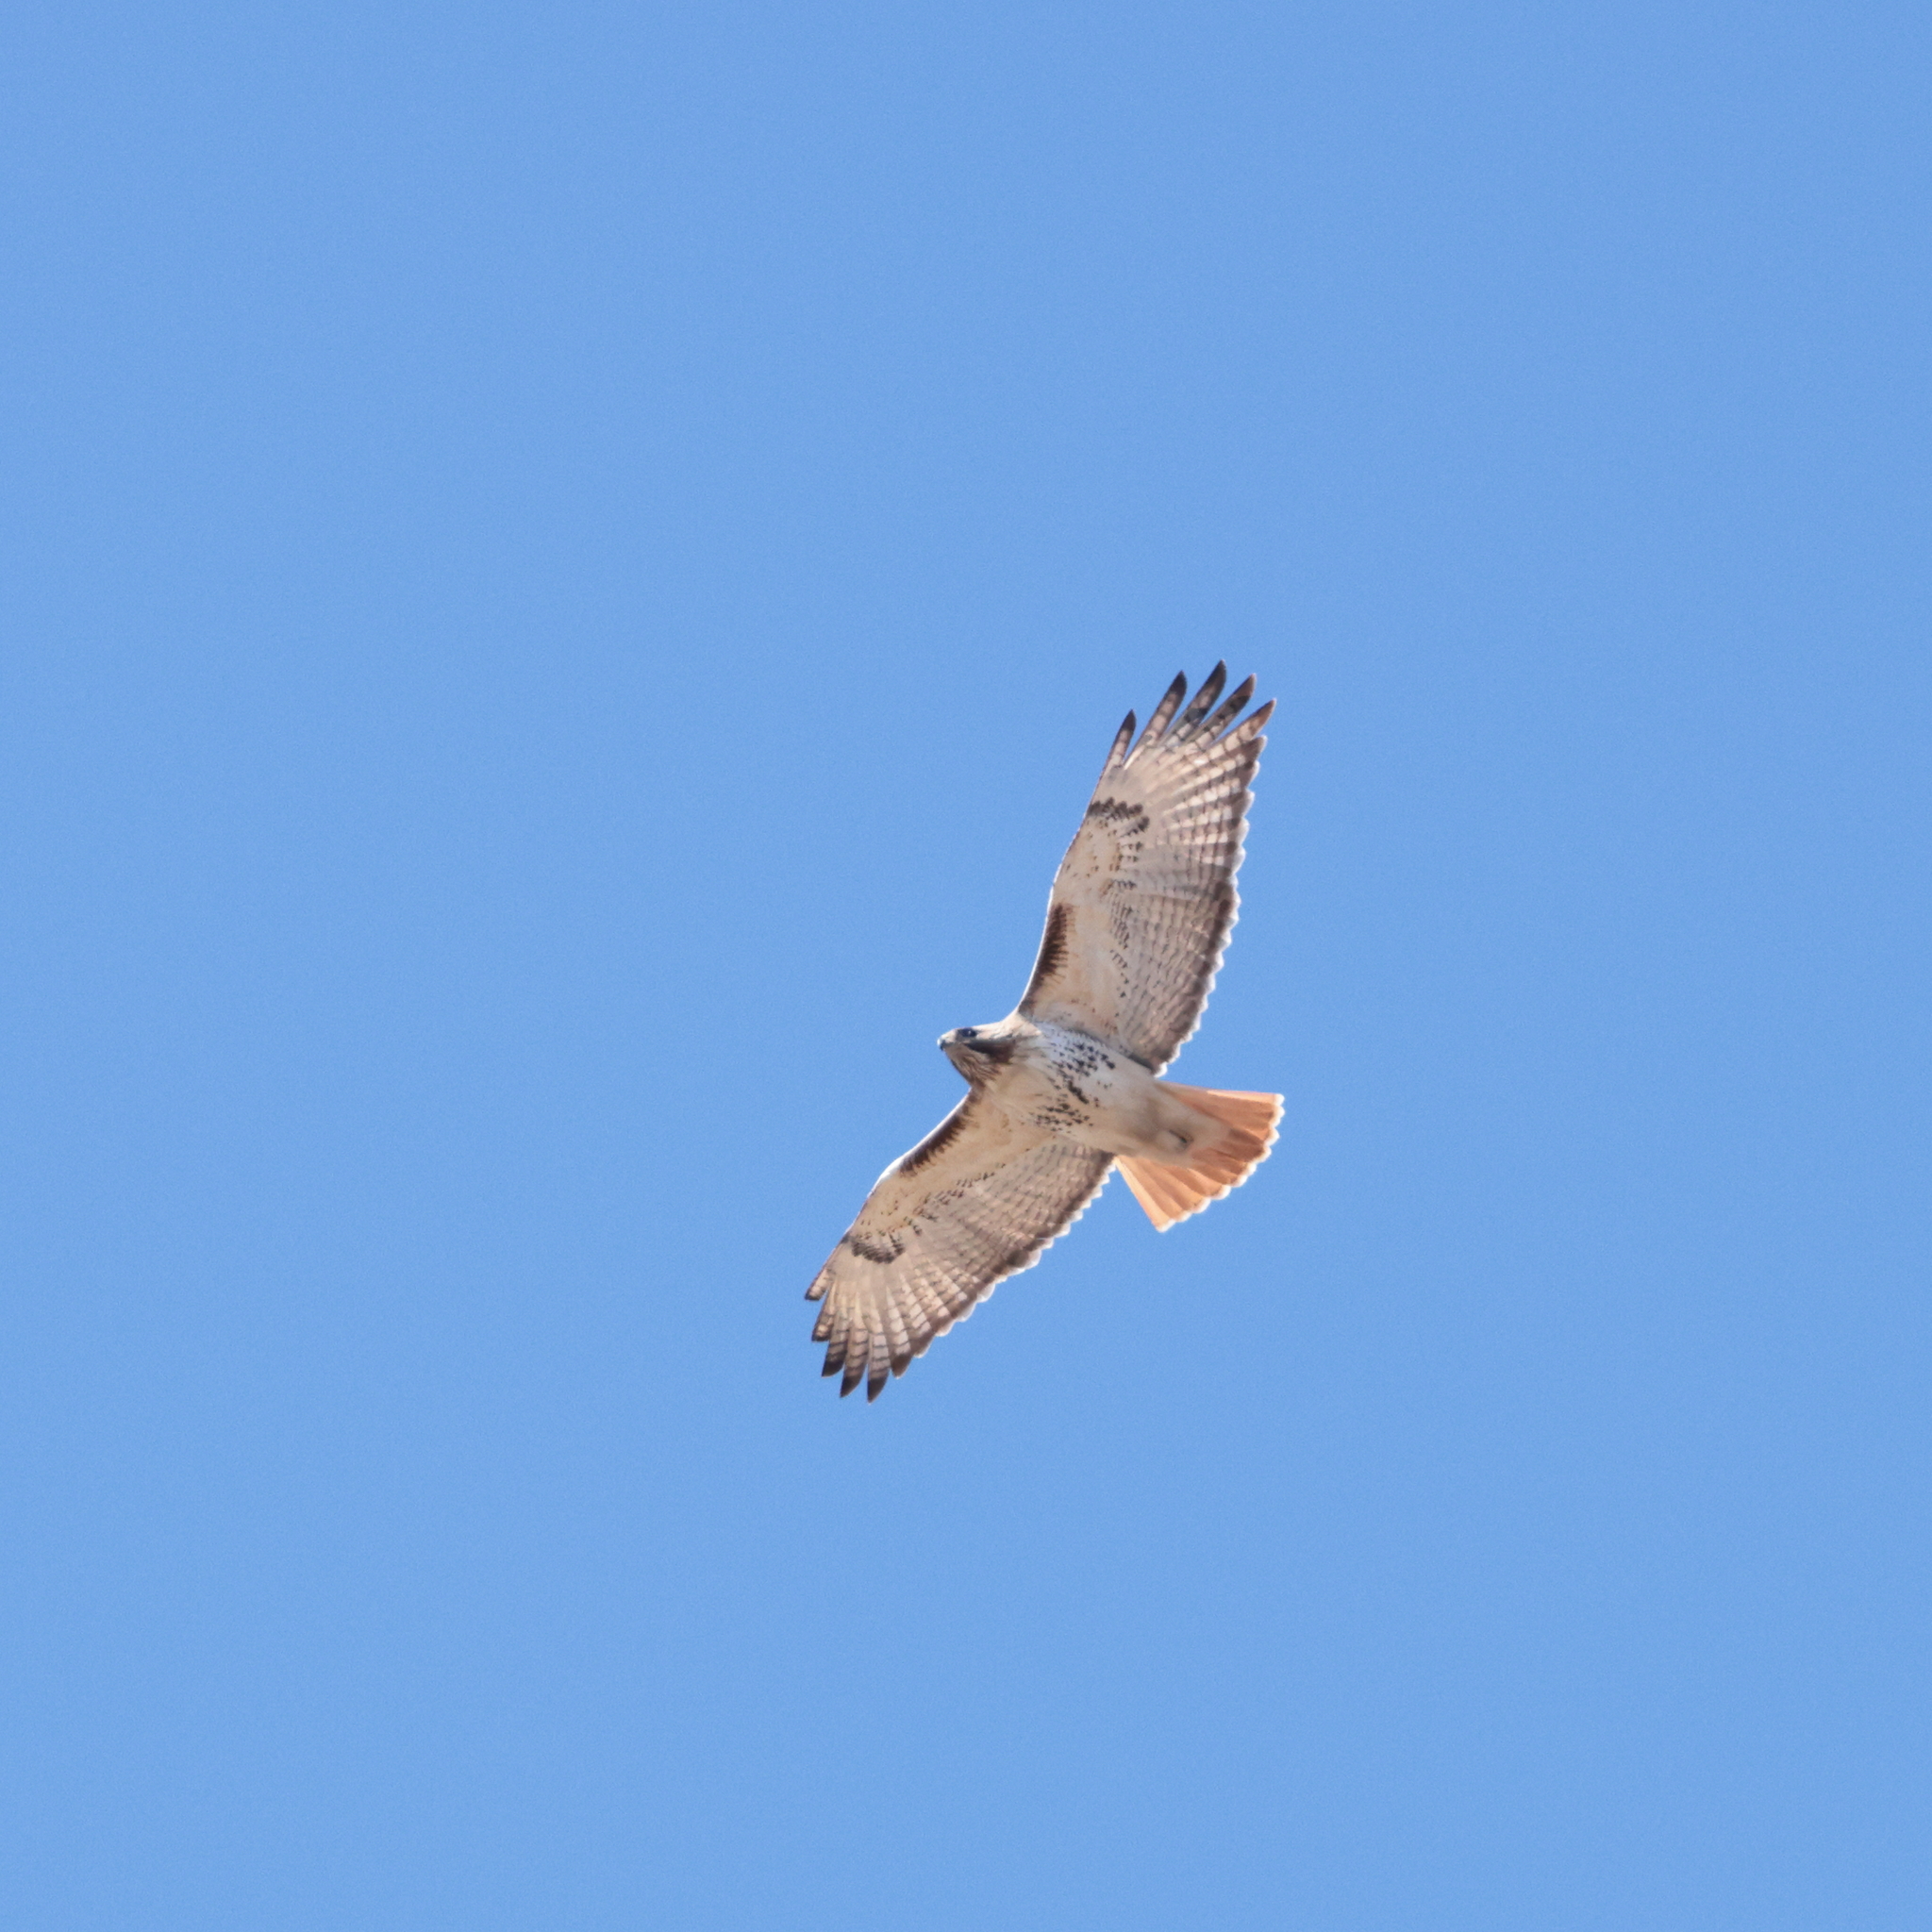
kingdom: Animalia
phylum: Chordata
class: Aves
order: Accipitriformes
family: Accipitridae
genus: Buteo
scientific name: Buteo jamaicensis
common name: Red-tailed hawk
